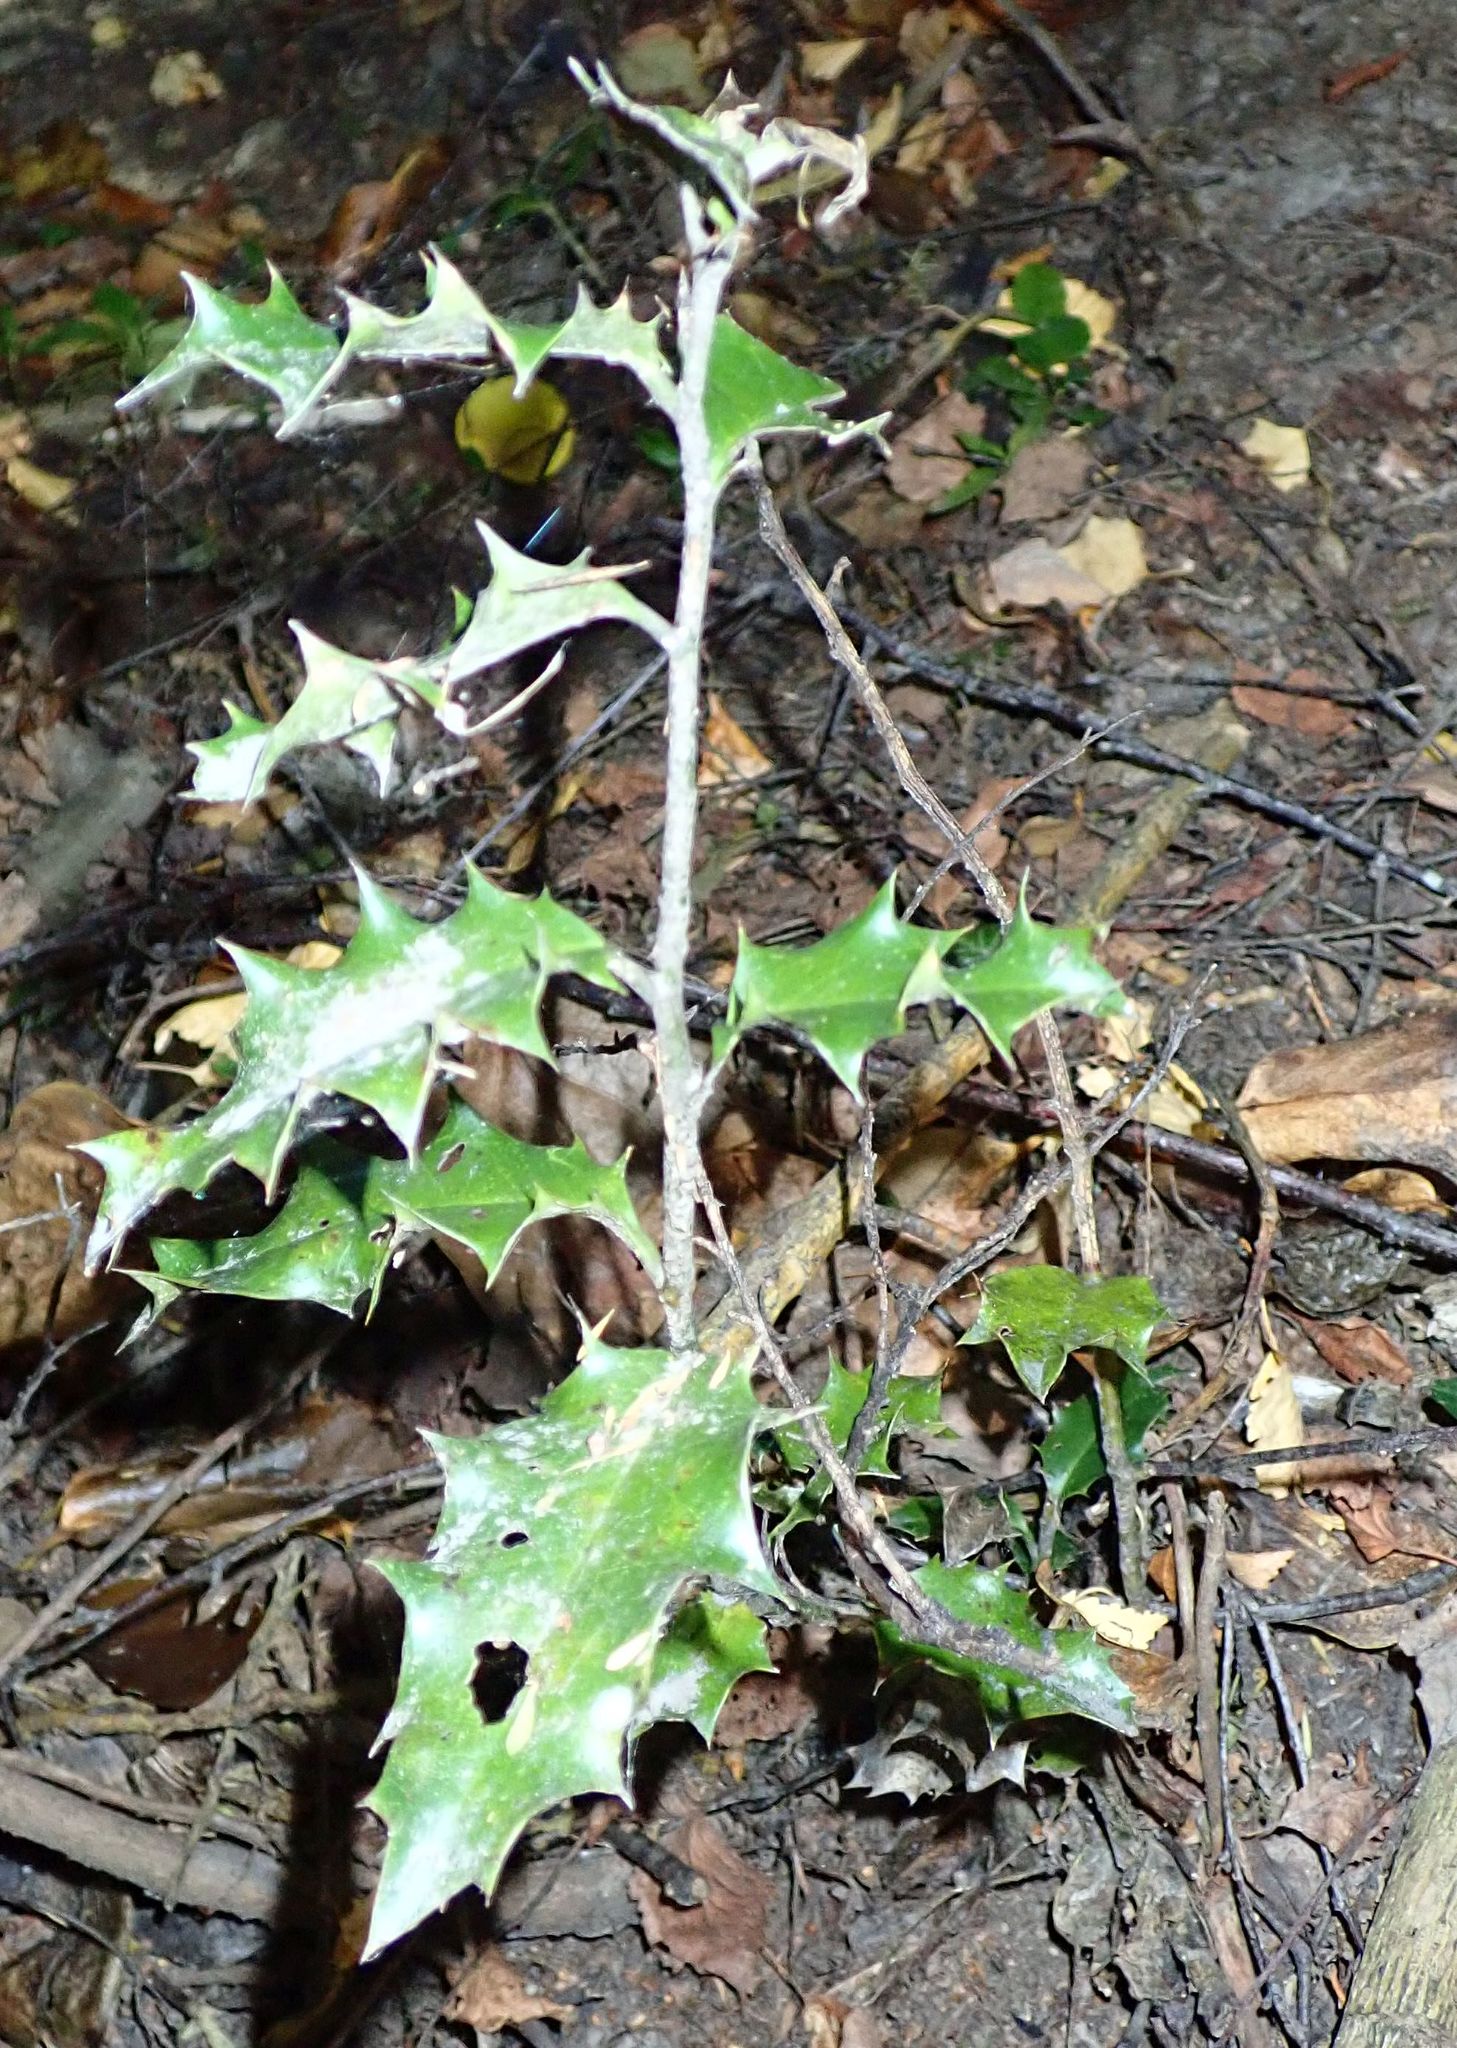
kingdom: Plantae
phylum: Tracheophyta
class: Magnoliopsida
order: Aquifoliales
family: Aquifoliaceae
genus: Ilex
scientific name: Ilex aquifolium
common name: English holly
